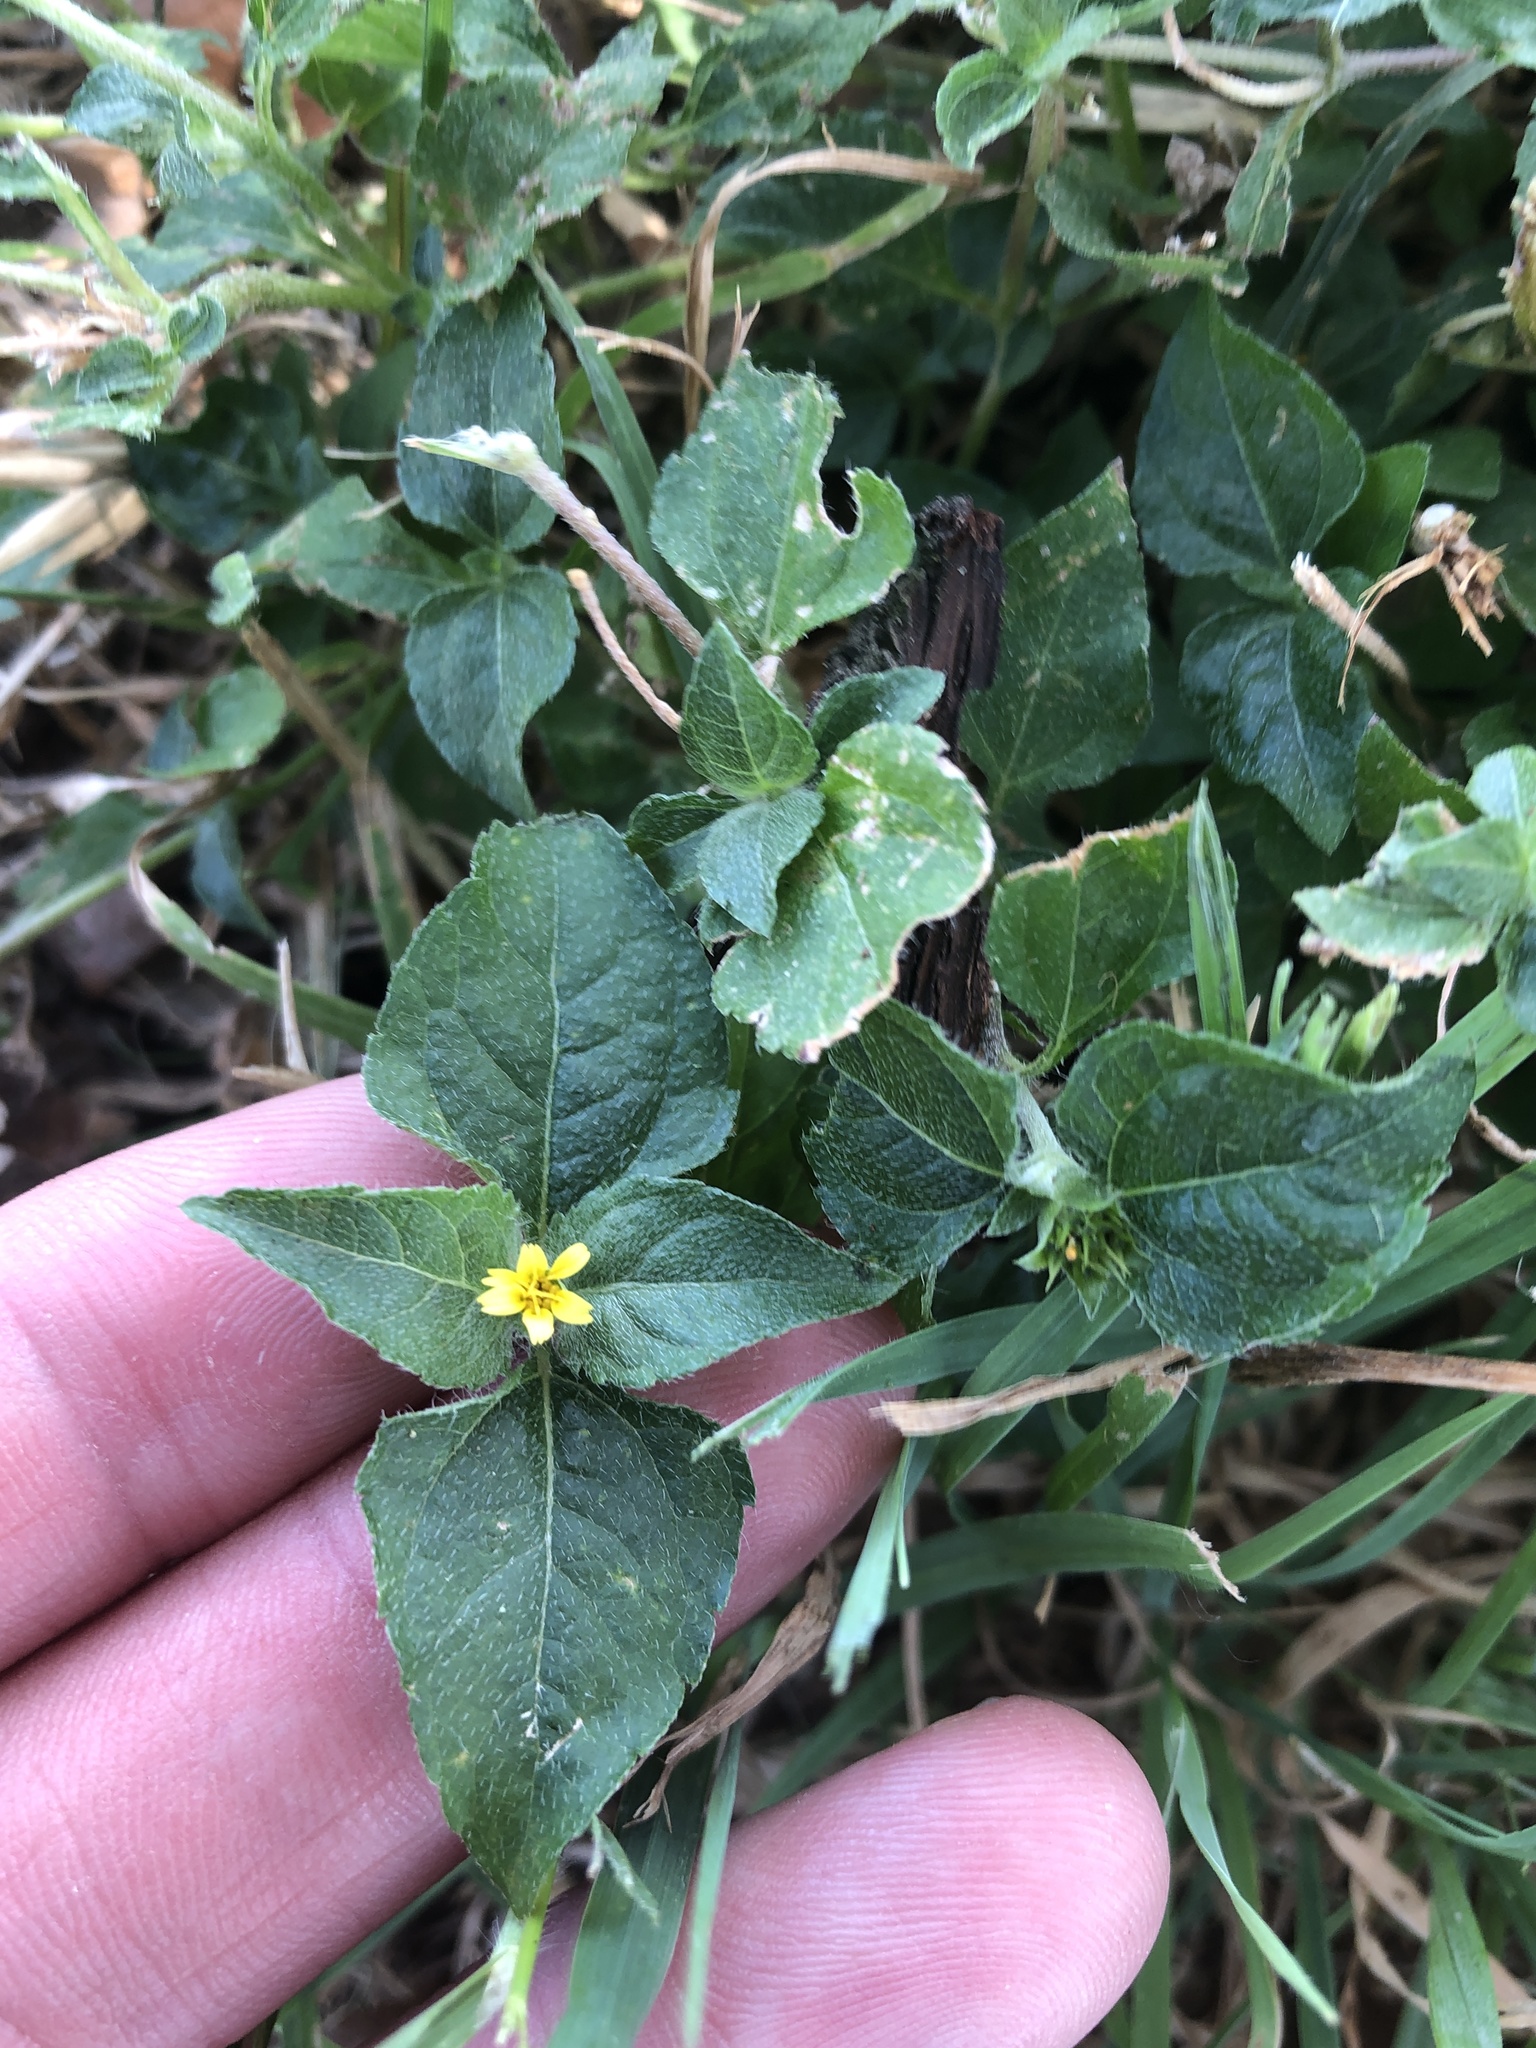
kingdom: Plantae
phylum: Tracheophyta
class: Magnoliopsida
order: Asterales
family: Asteraceae
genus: Calyptocarpus
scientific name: Calyptocarpus vialis
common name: Straggler daisy
